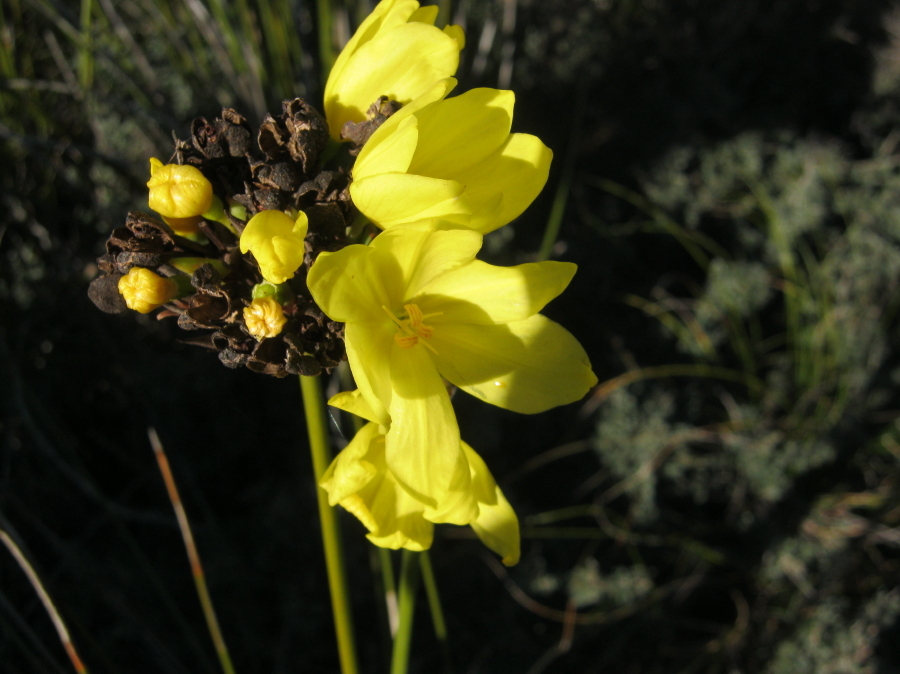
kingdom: Plantae
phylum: Tracheophyta
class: Liliopsida
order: Asparagales
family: Iridaceae
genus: Bobartia
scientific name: Bobartia robusta
